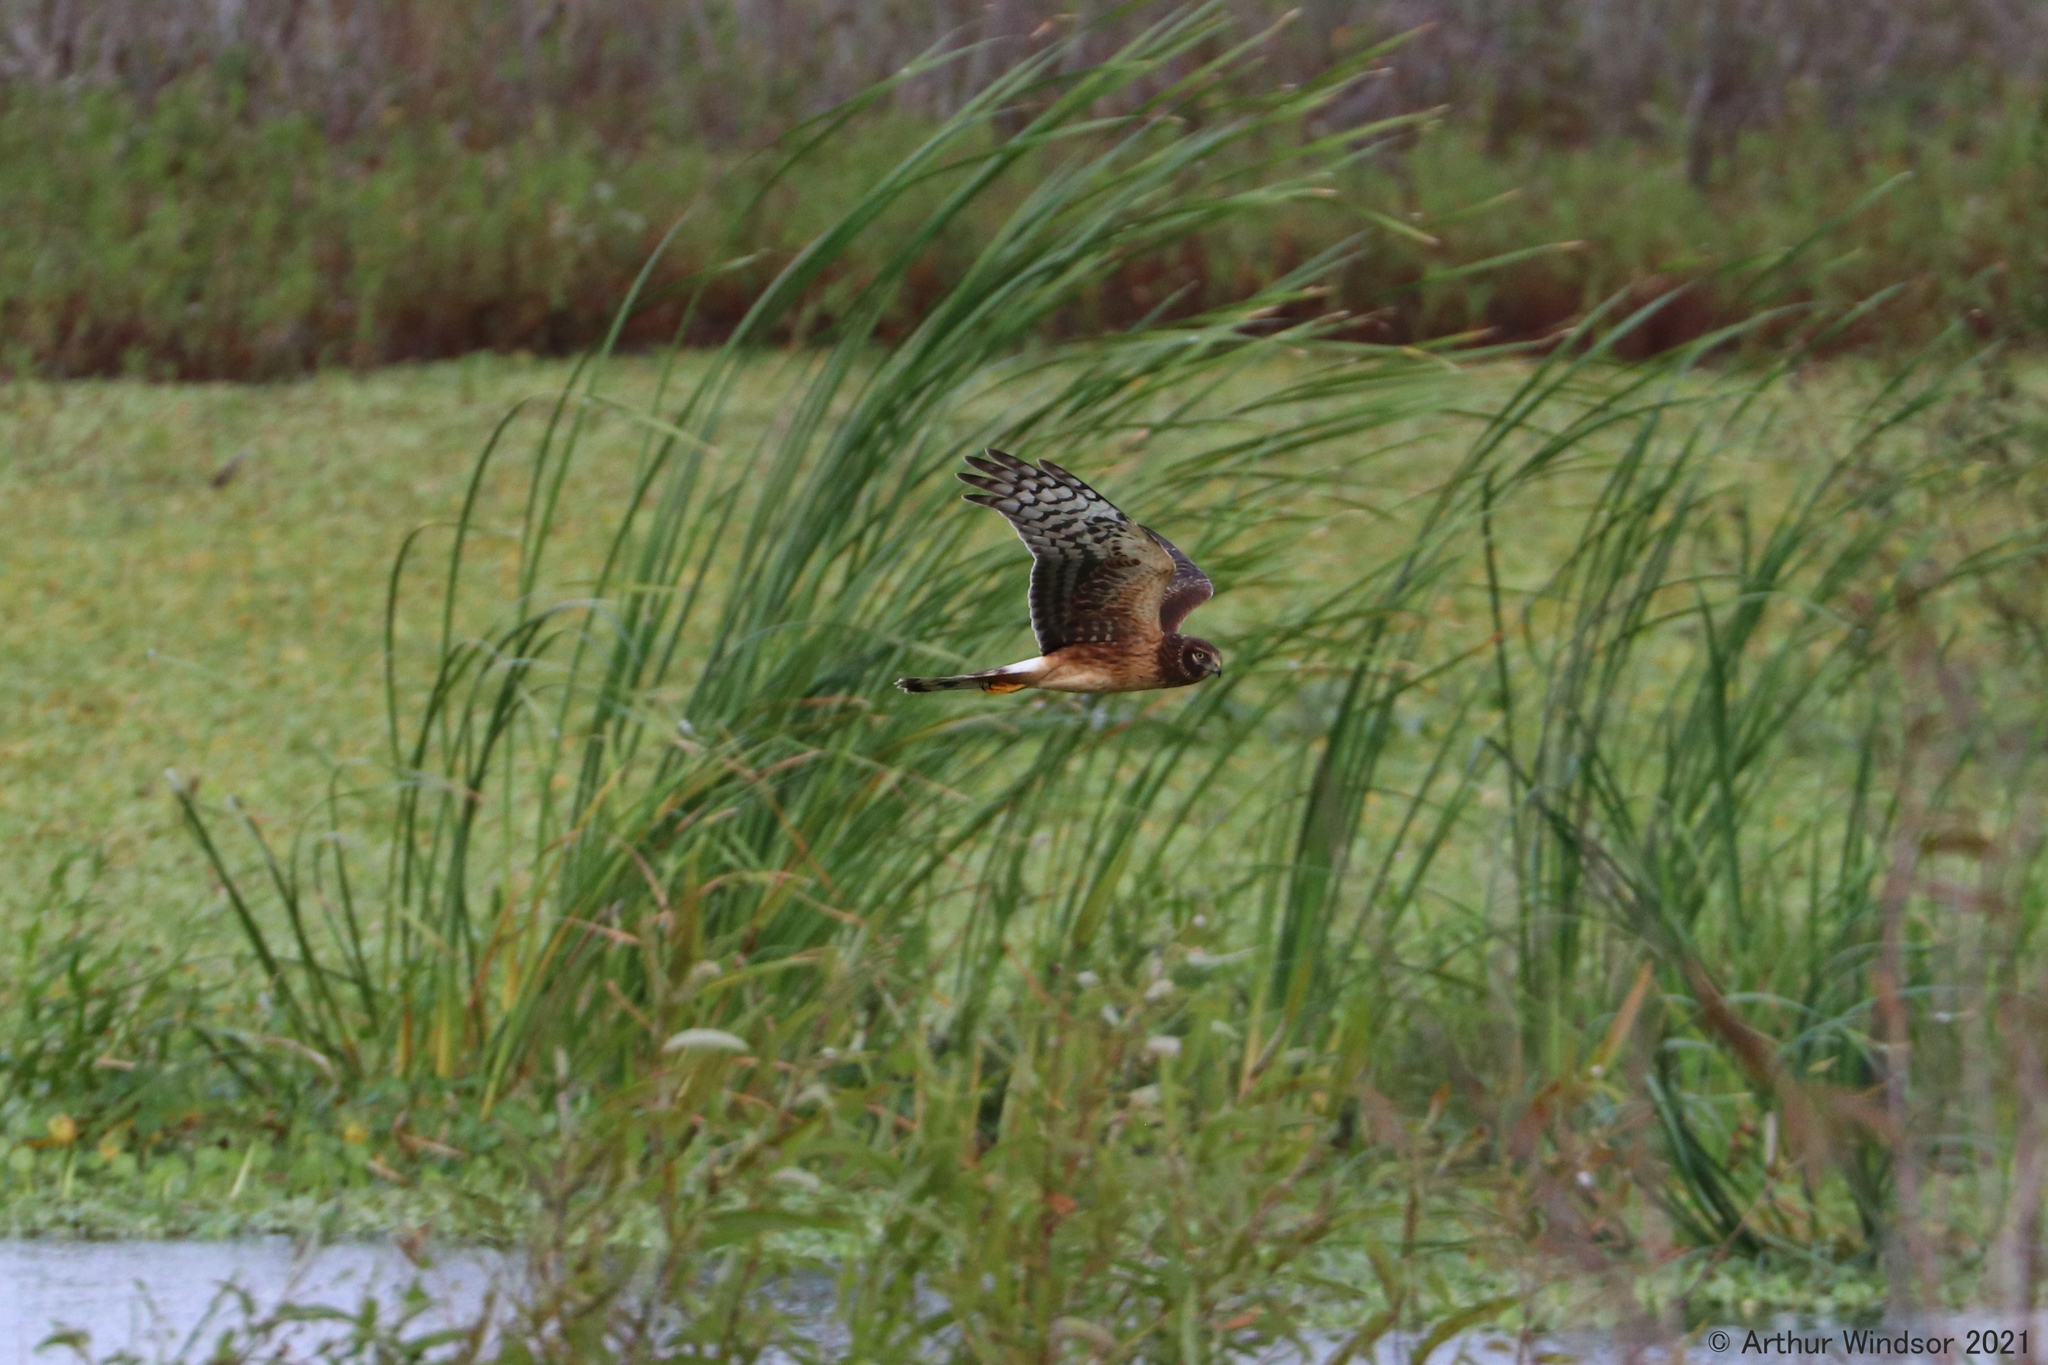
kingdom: Animalia
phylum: Chordata
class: Aves
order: Accipitriformes
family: Accipitridae
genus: Circus
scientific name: Circus cyaneus
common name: Hen harrier
